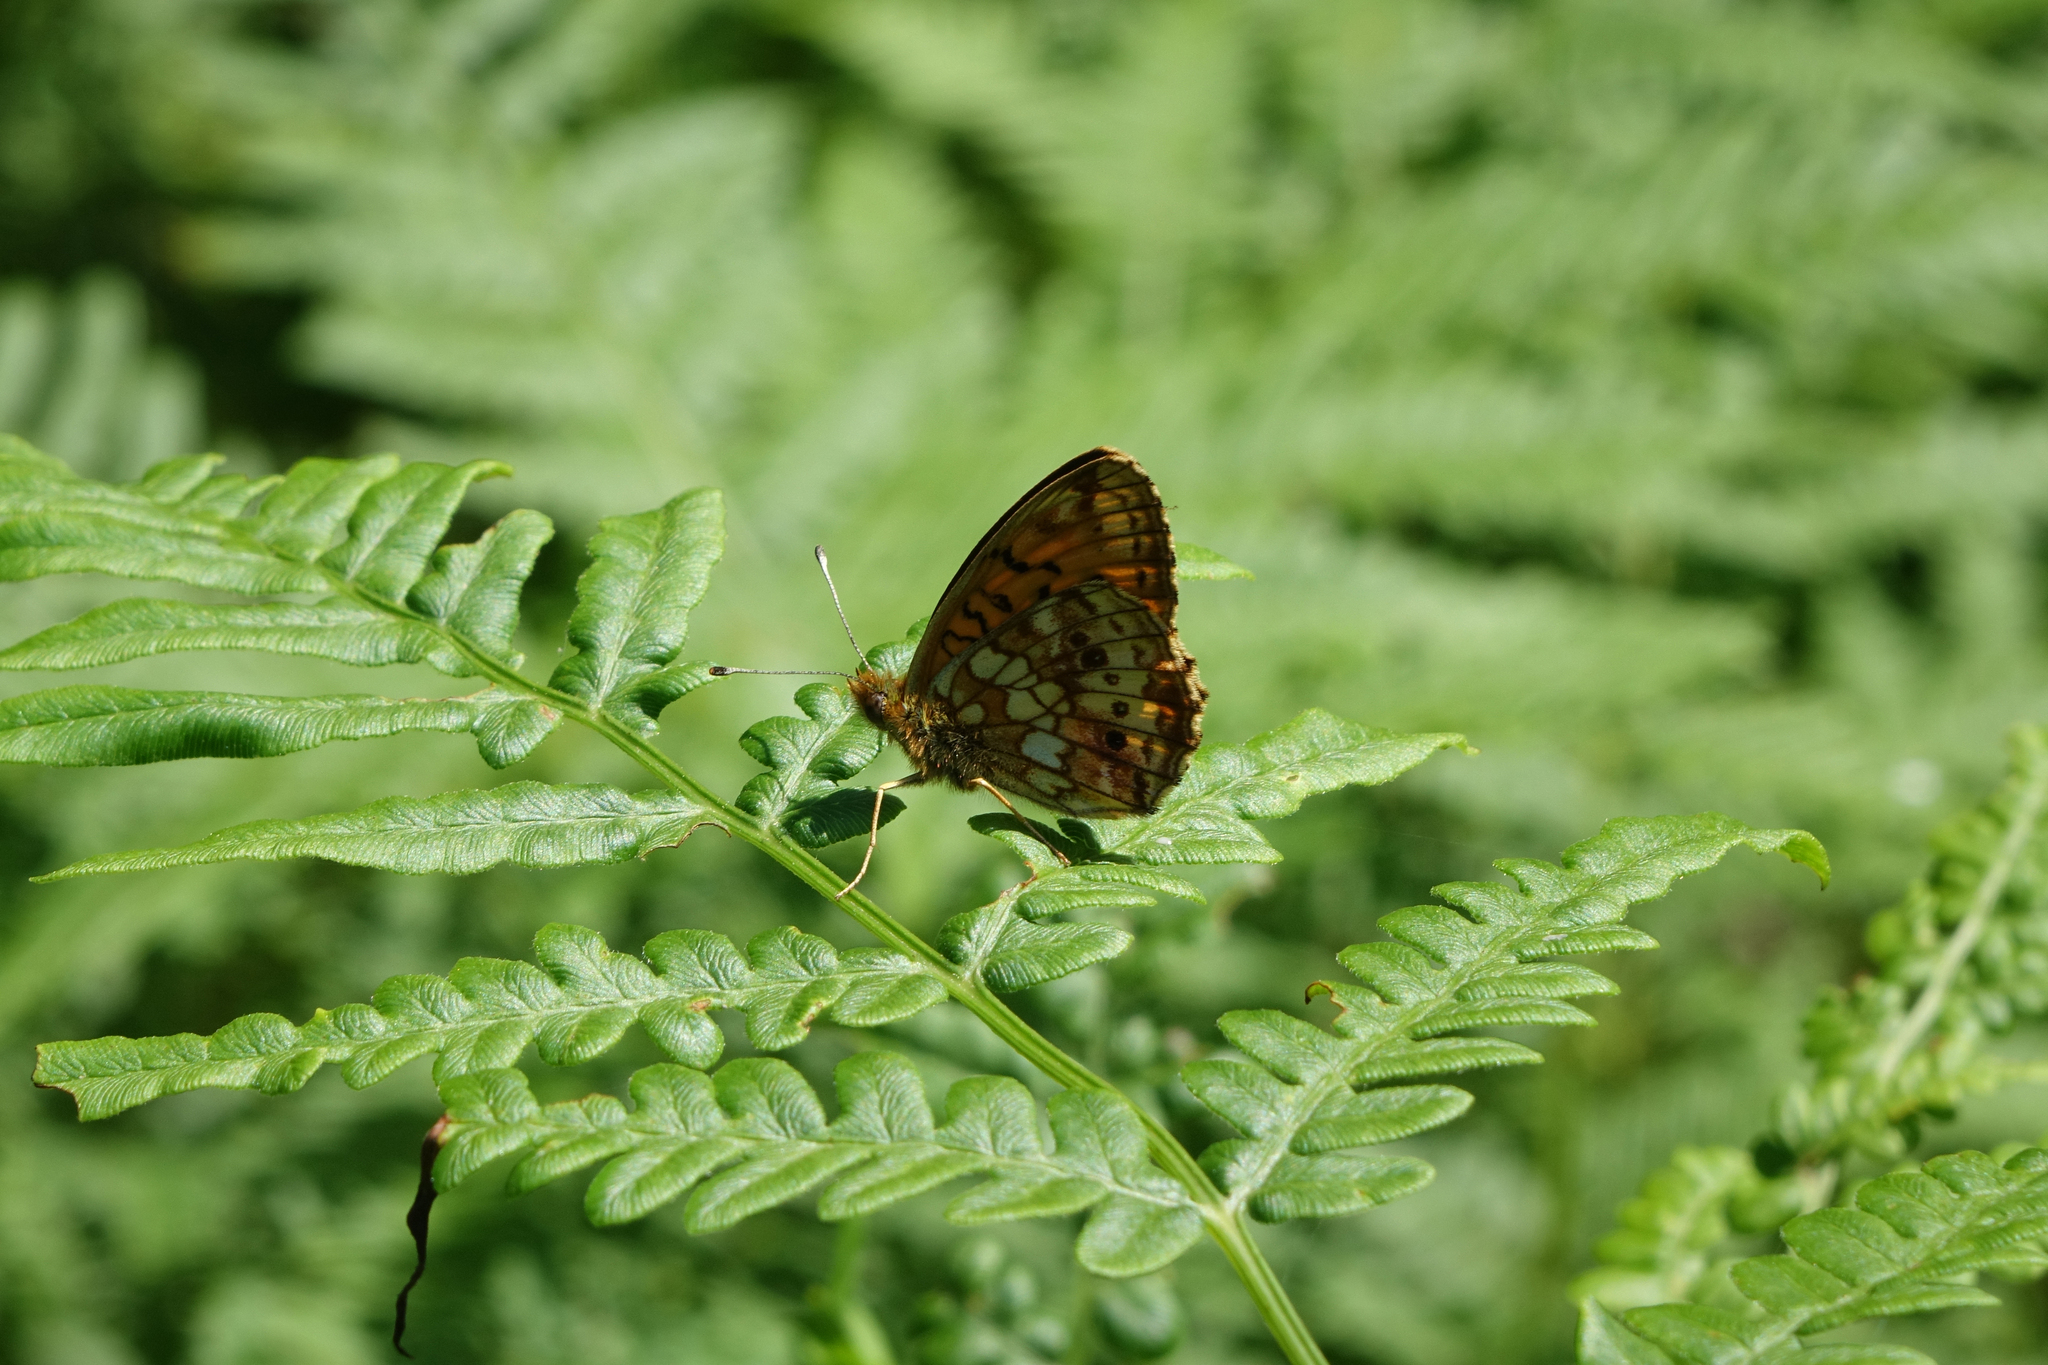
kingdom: Plantae
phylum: Tracheophyta
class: Polypodiopsida
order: Polypodiales
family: Dennstaedtiaceae
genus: Pteridium
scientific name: Pteridium aquilinum
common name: Bracken
